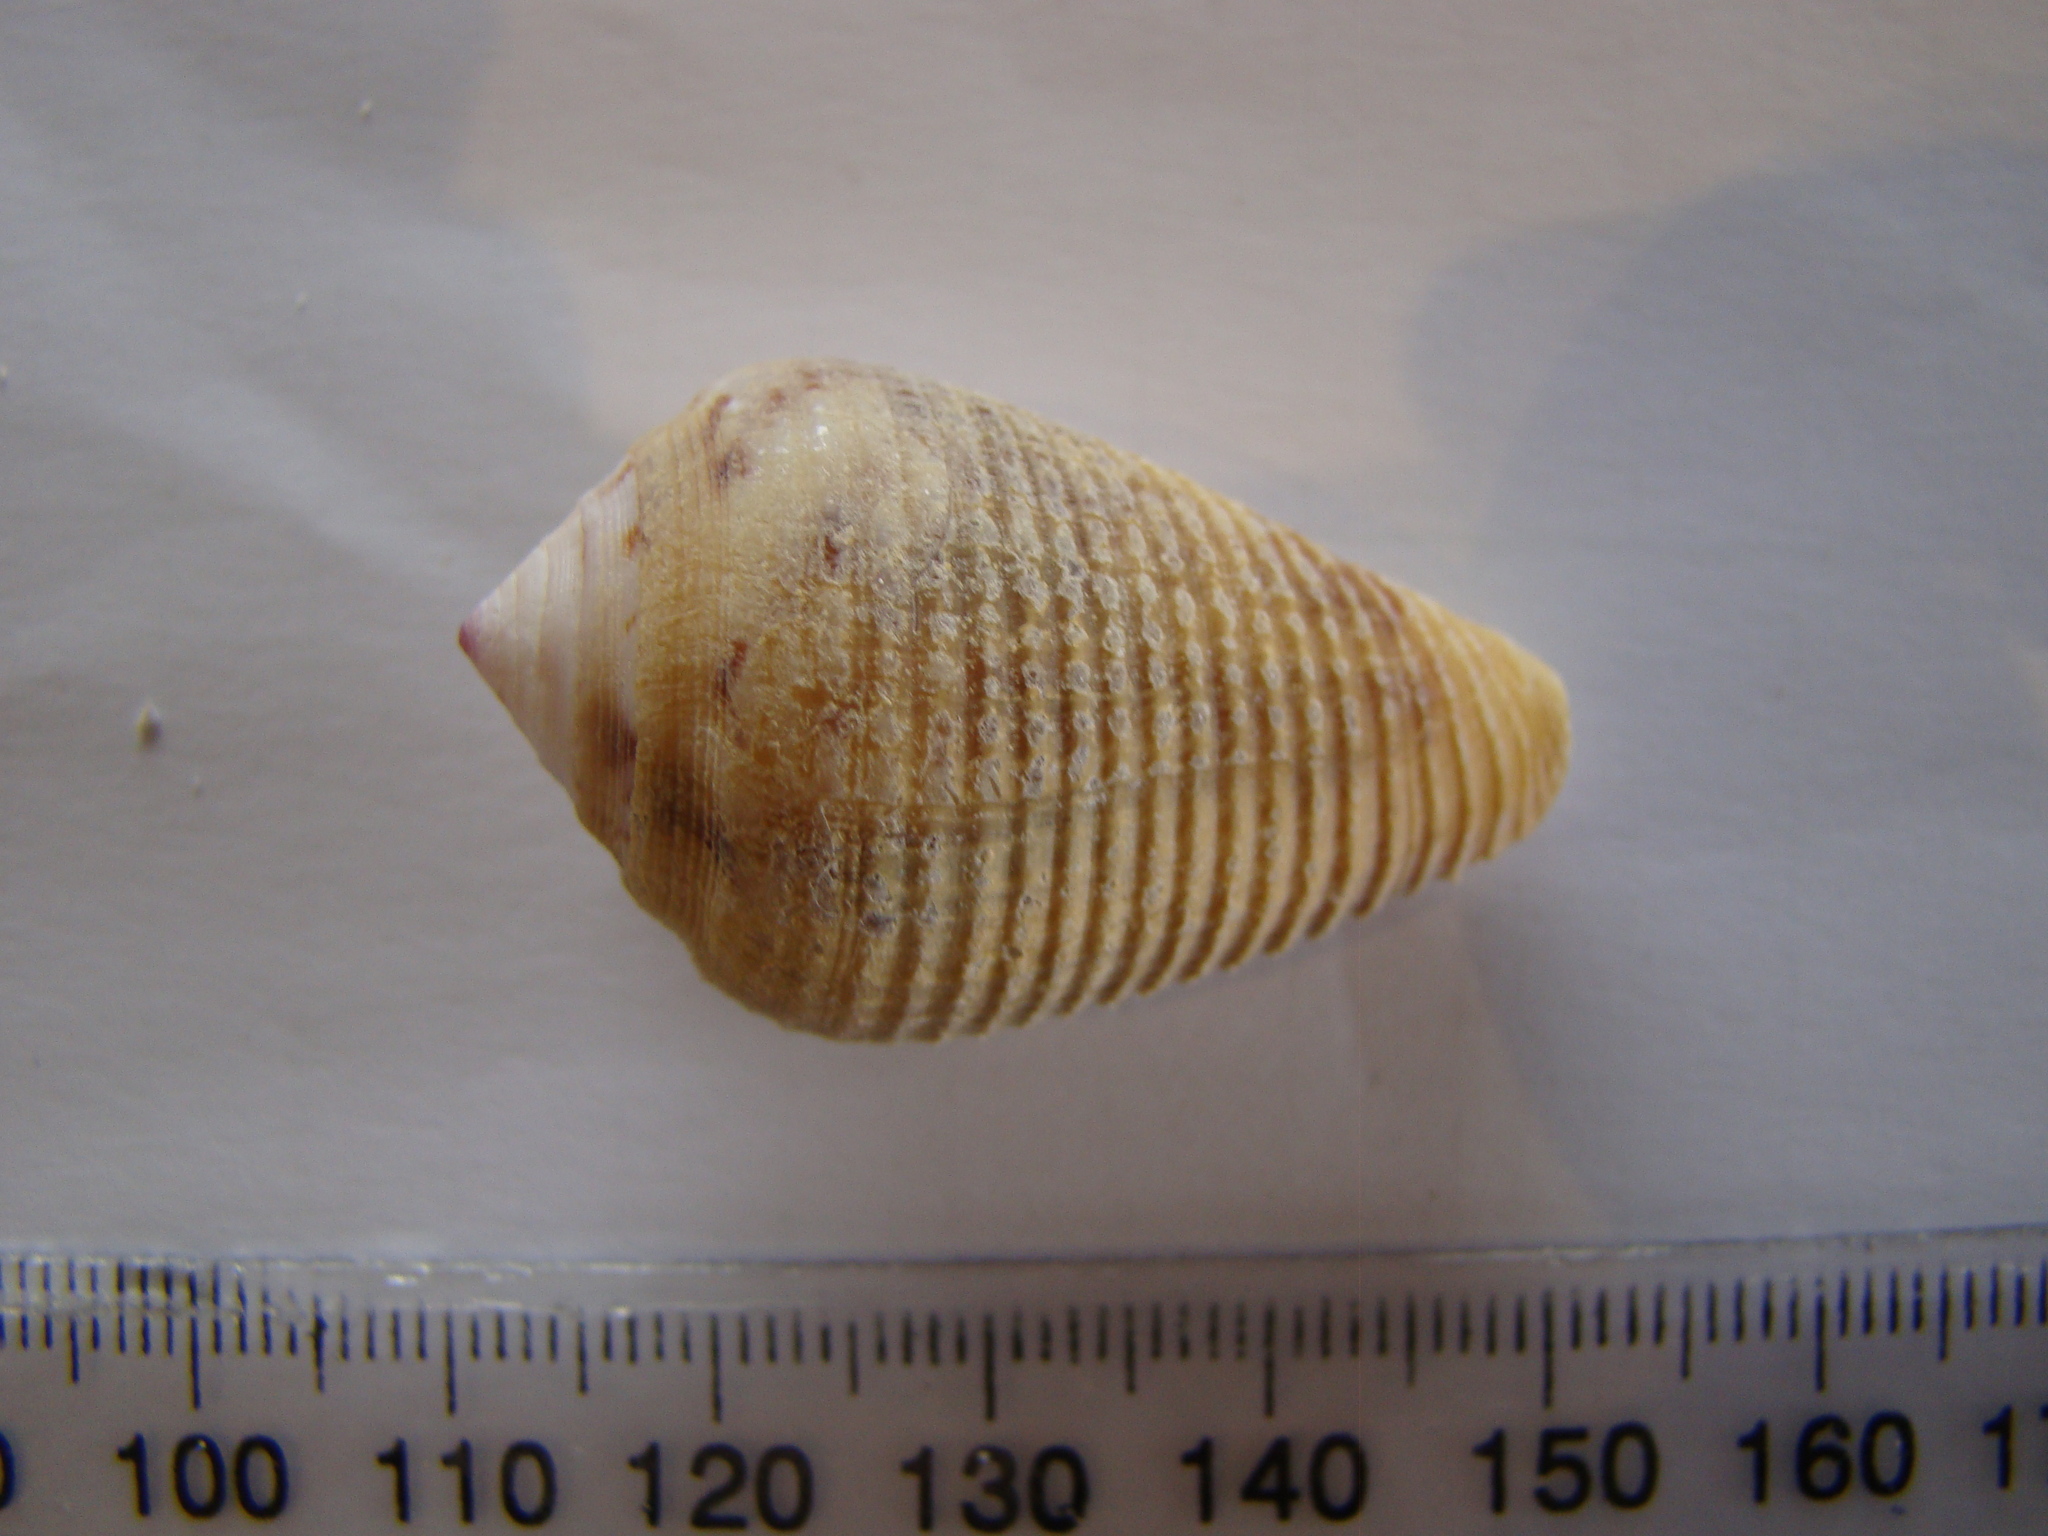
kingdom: Animalia
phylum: Mollusca
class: Gastropoda
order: Neogastropoda
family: Conidae
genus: Conus
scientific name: Conus catus
